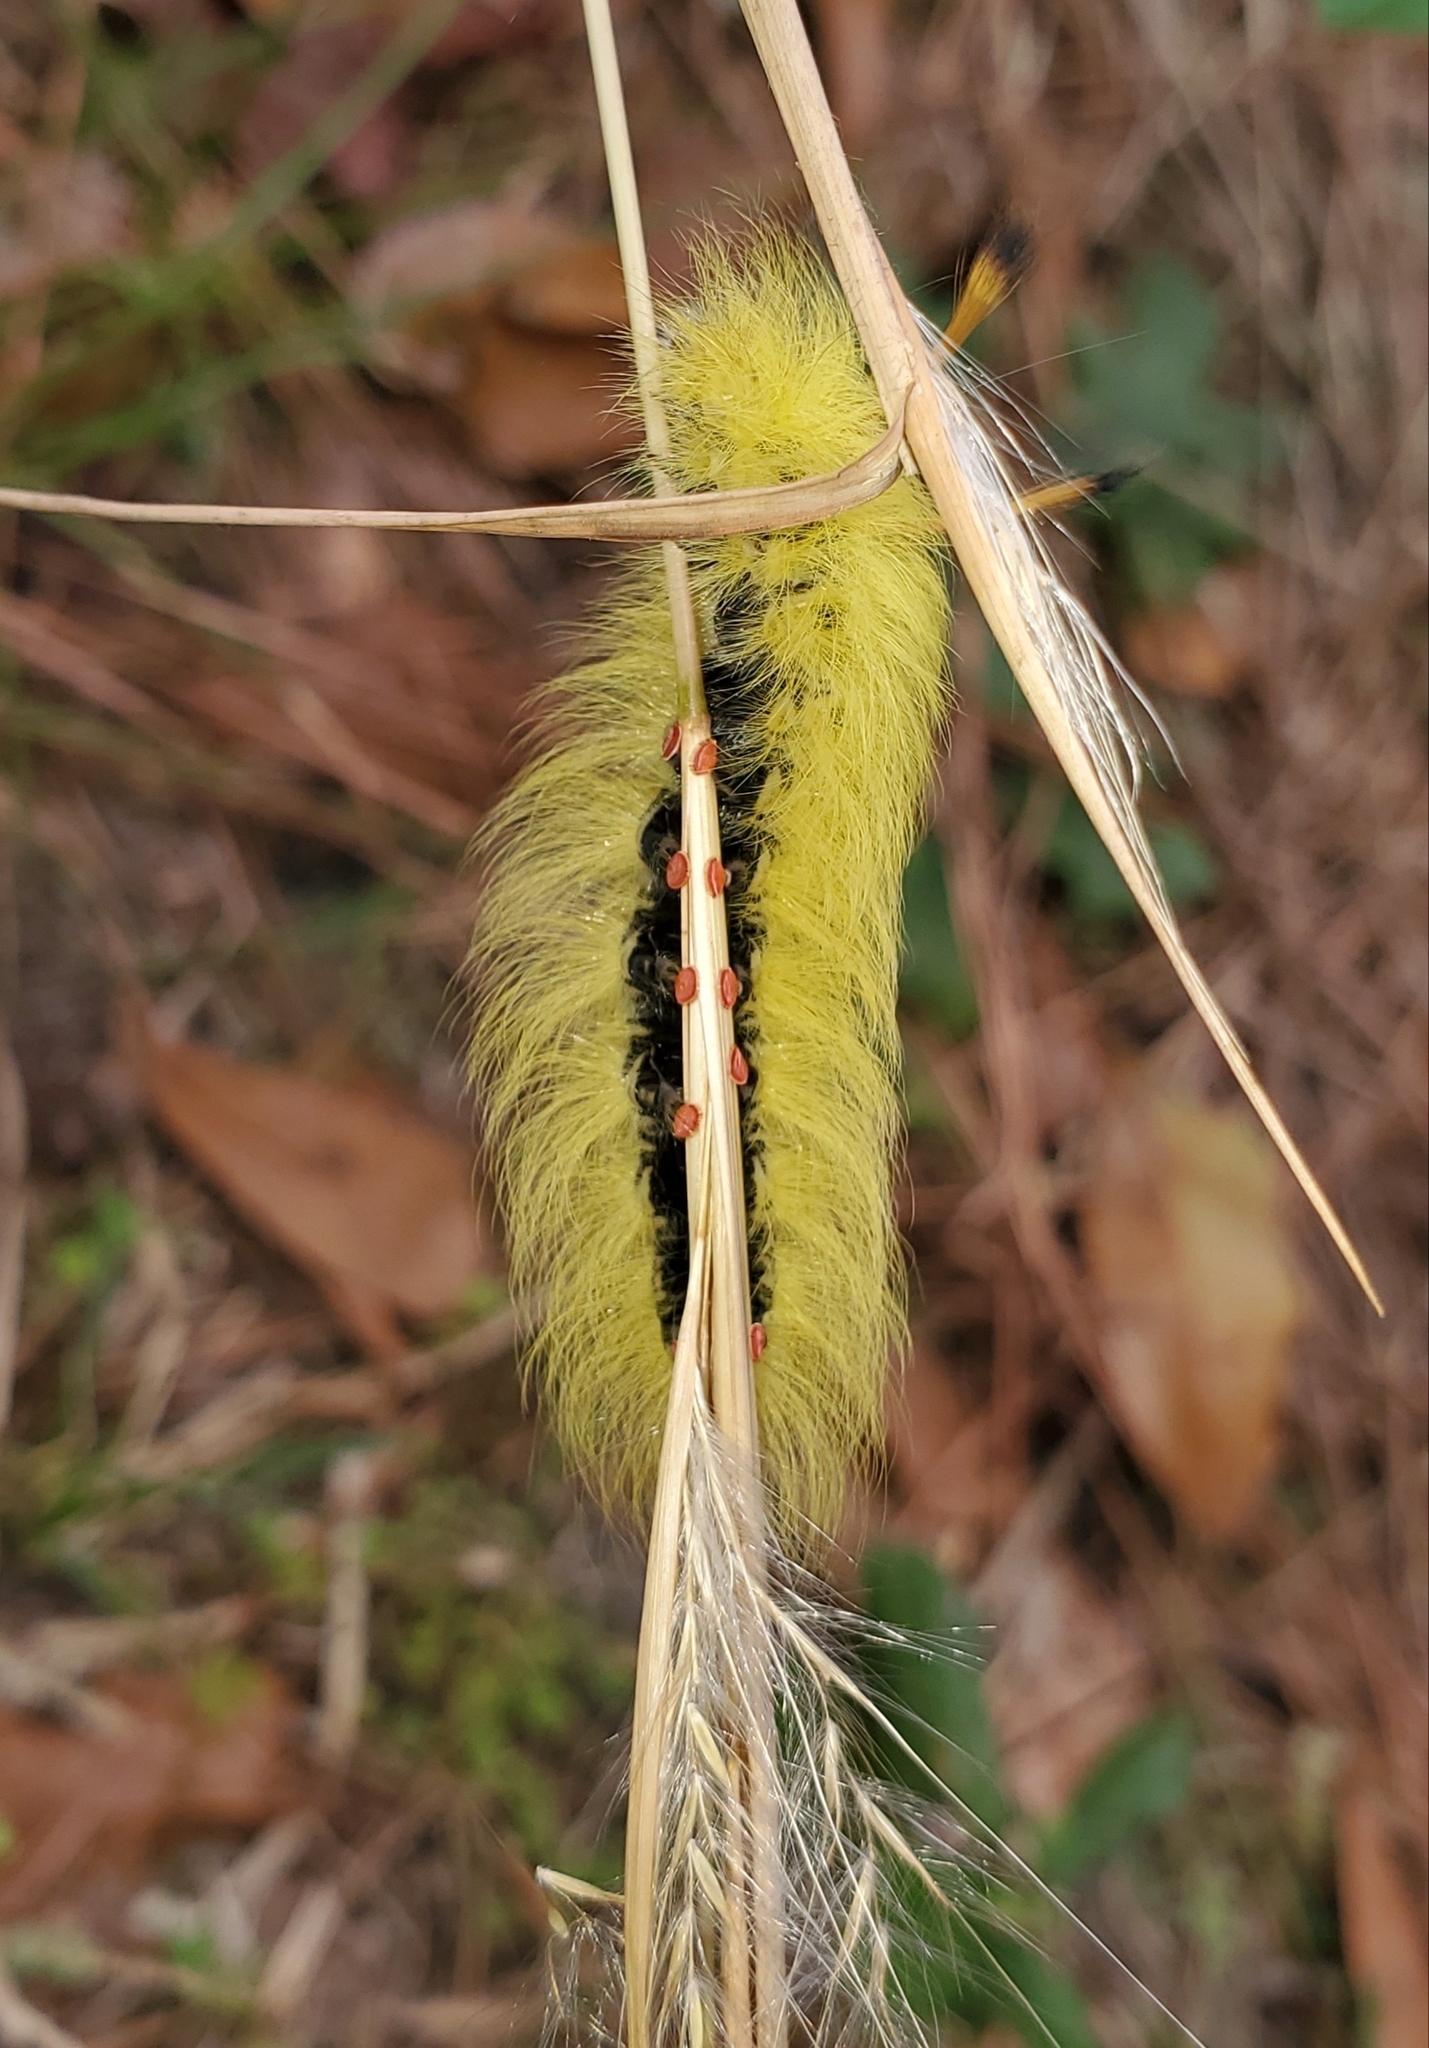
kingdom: Animalia
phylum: Arthropoda
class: Insecta
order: Lepidoptera
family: Apatelodidae
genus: Hygrochroa
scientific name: Hygrochroa Apatelodes torrefacta
